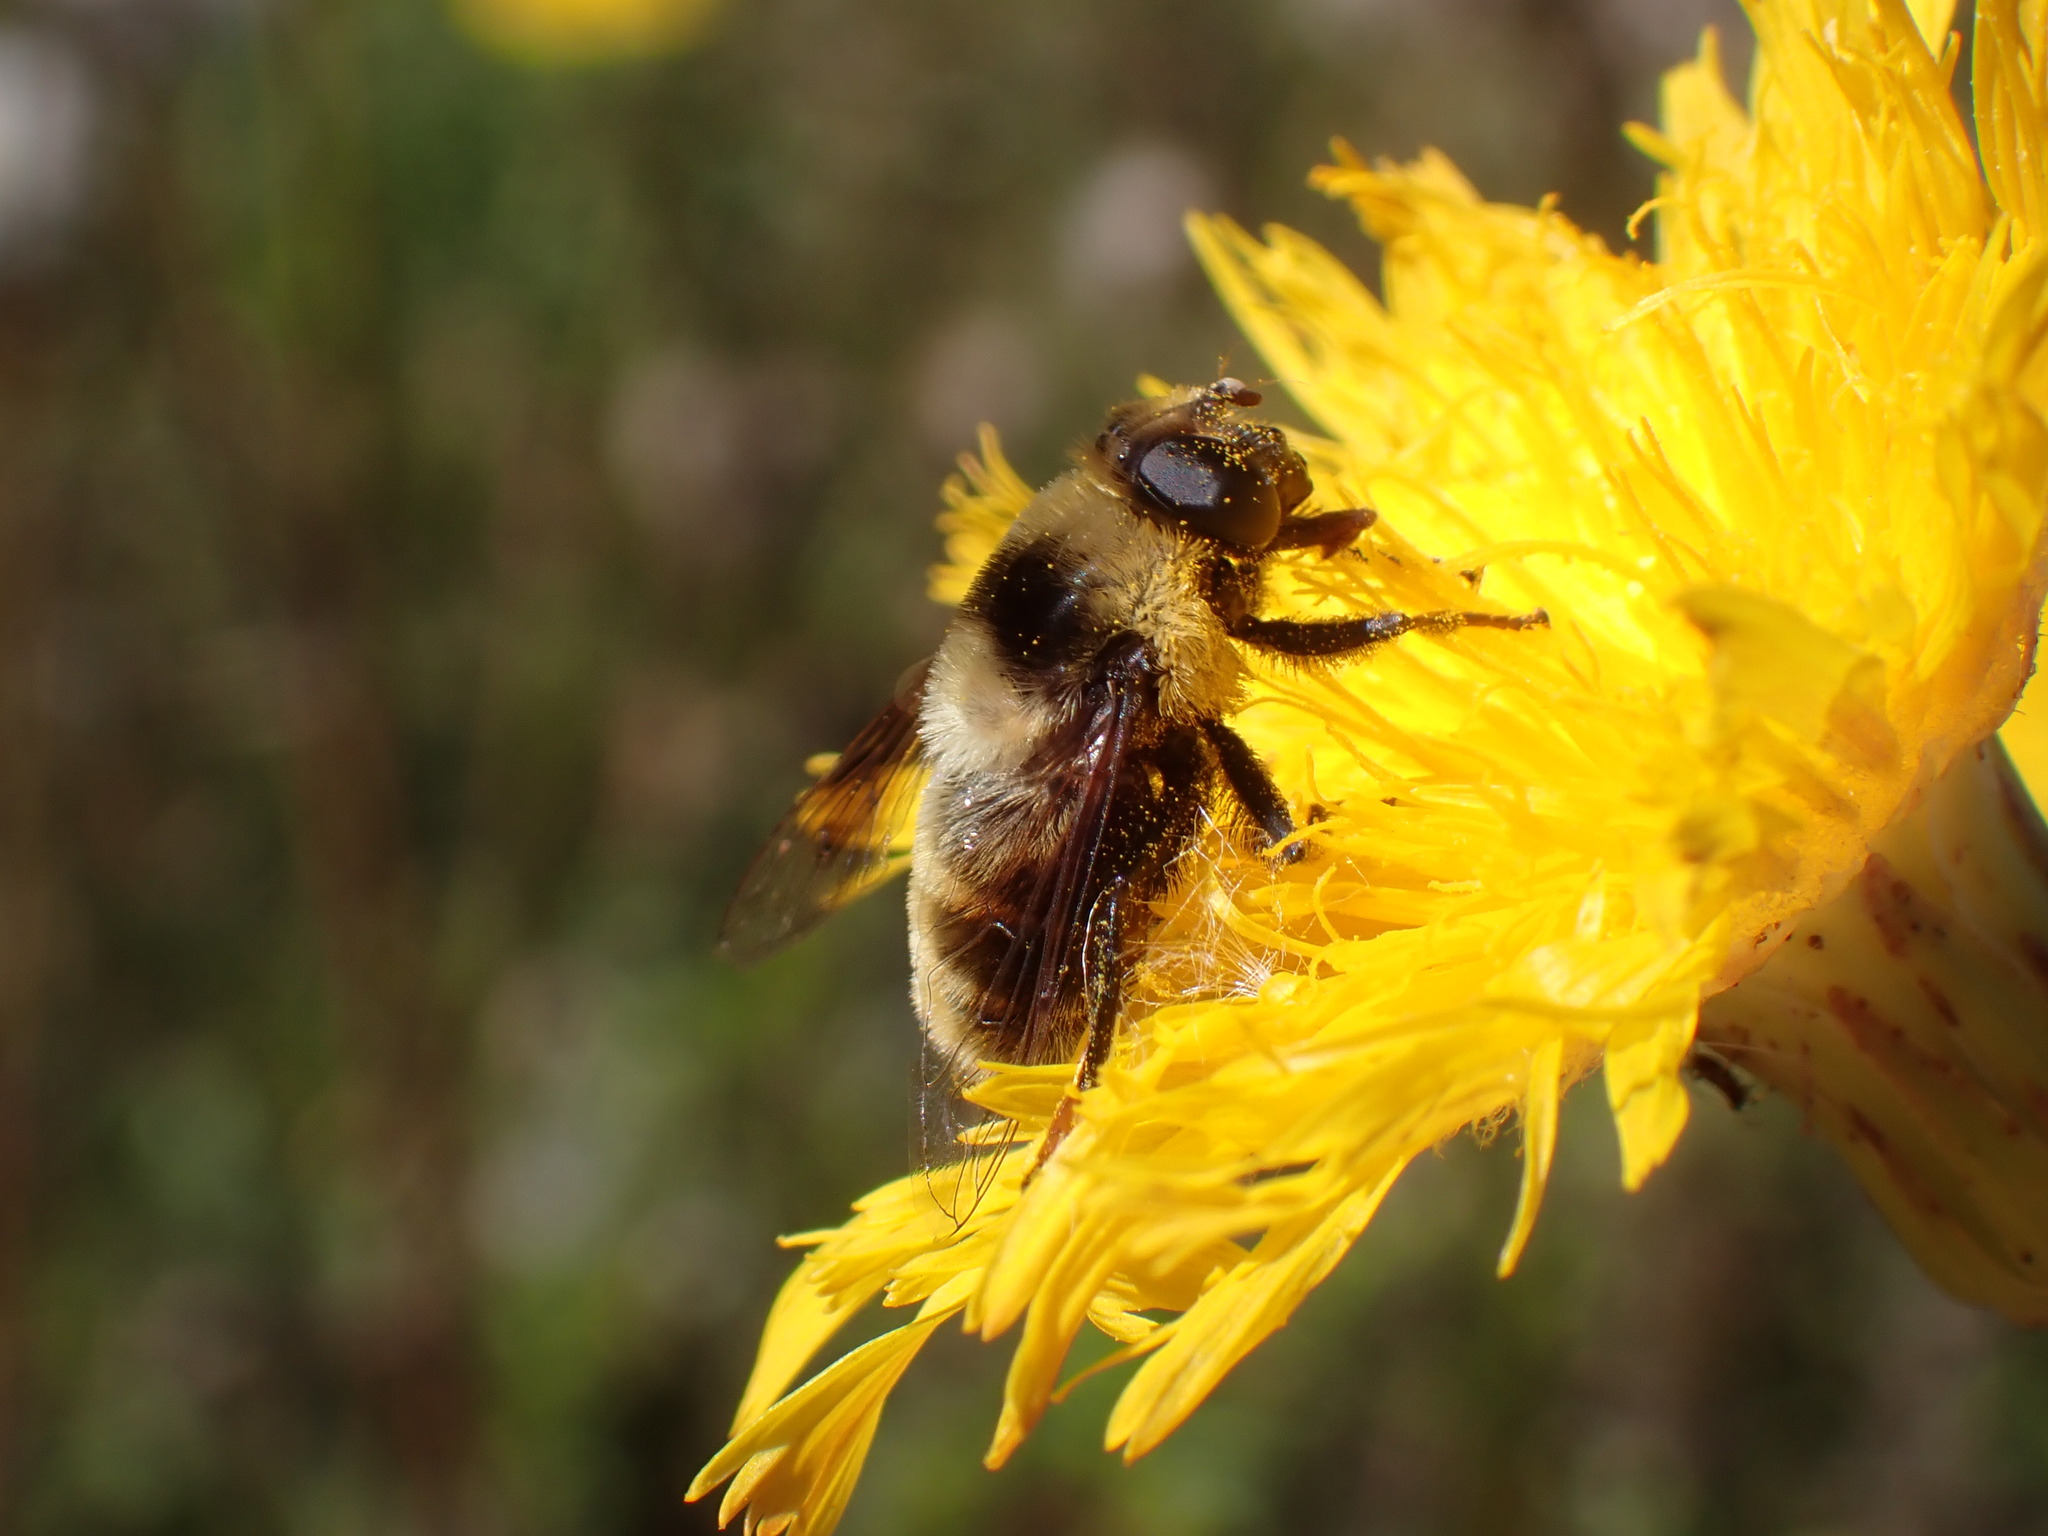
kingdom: Animalia
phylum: Arthropoda
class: Insecta
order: Diptera
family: Syrphidae
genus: Eristalis
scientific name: Eristalis flavipes
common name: Orange-legged drone fly
